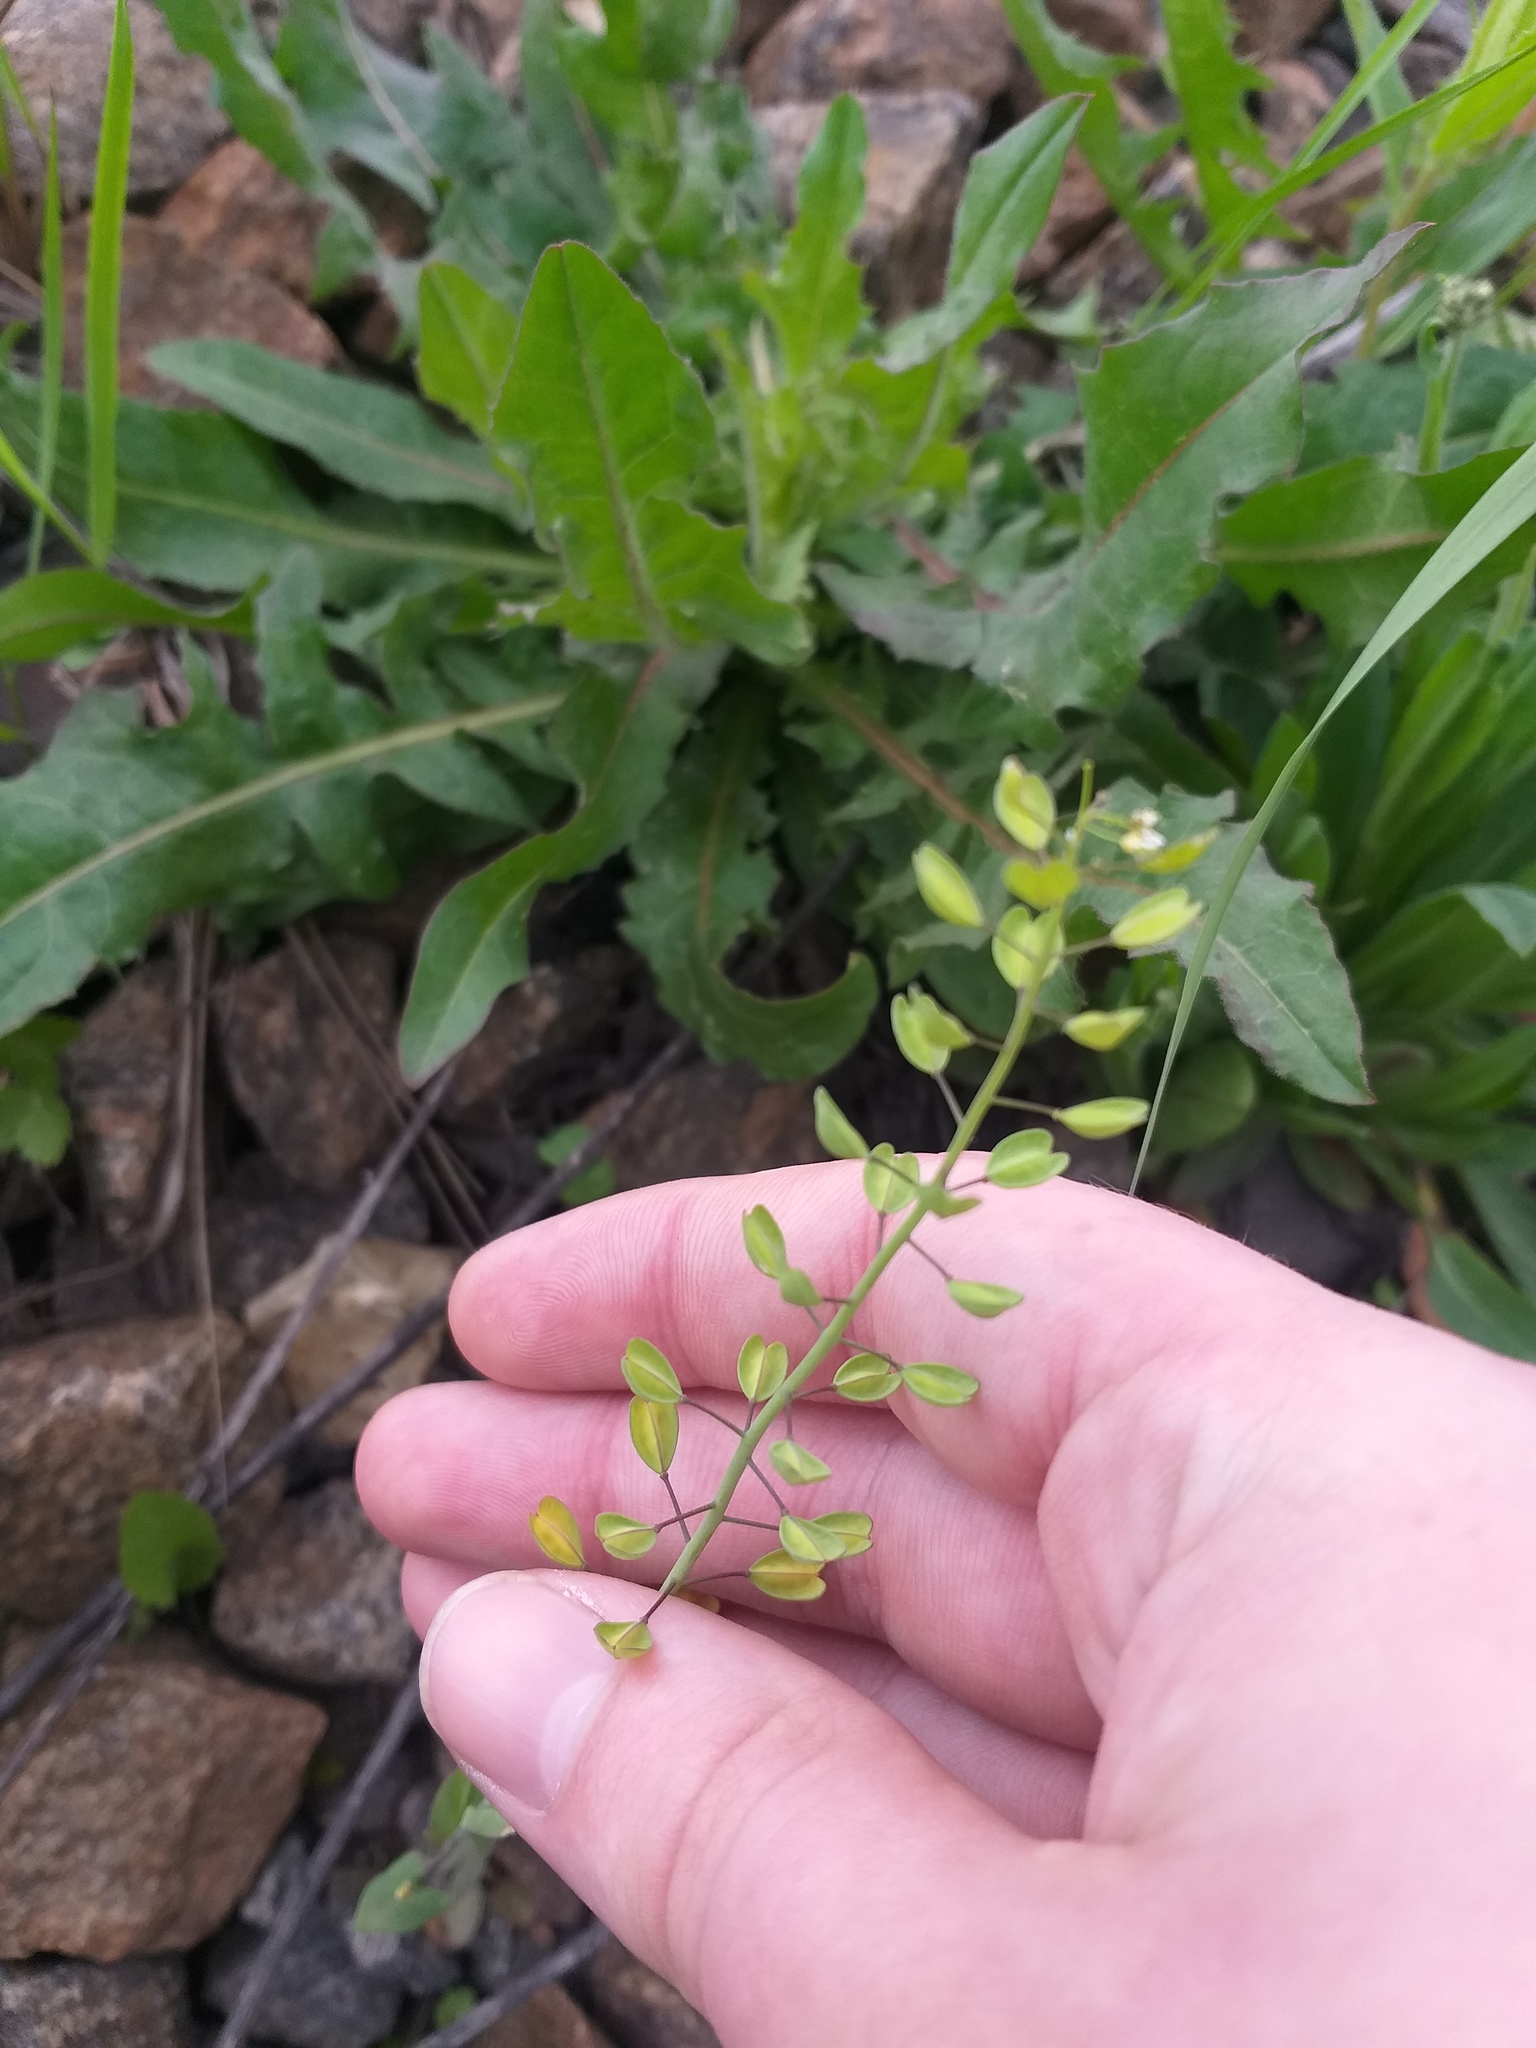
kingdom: Plantae
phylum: Tracheophyta
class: Magnoliopsida
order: Brassicales
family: Brassicaceae
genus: Noccaea
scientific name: Noccaea perfoliata
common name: Perfoliate pennycress
